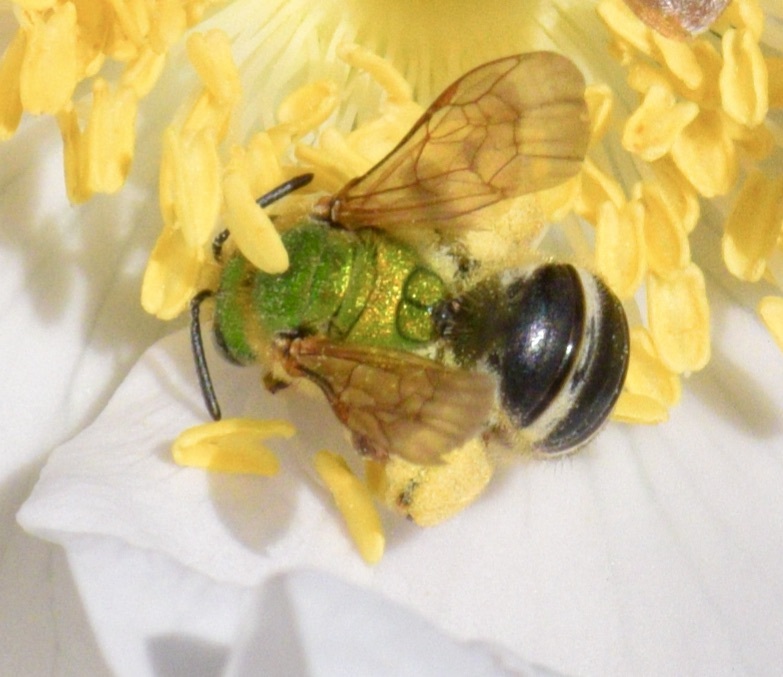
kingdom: Animalia
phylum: Arthropoda
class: Insecta
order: Hymenoptera
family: Halictidae
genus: Agapostemon
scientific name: Agapostemon virescens
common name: Bicolored striped sweat bee
